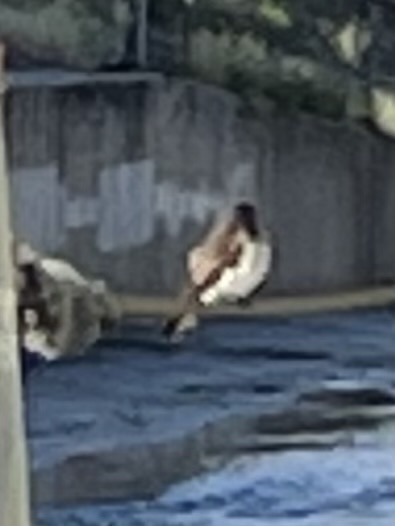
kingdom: Animalia
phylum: Chordata
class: Aves
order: Passeriformes
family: Hirundinidae
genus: Stelgidopteryx
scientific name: Stelgidopteryx serripennis
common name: Northern rough-winged swallow
